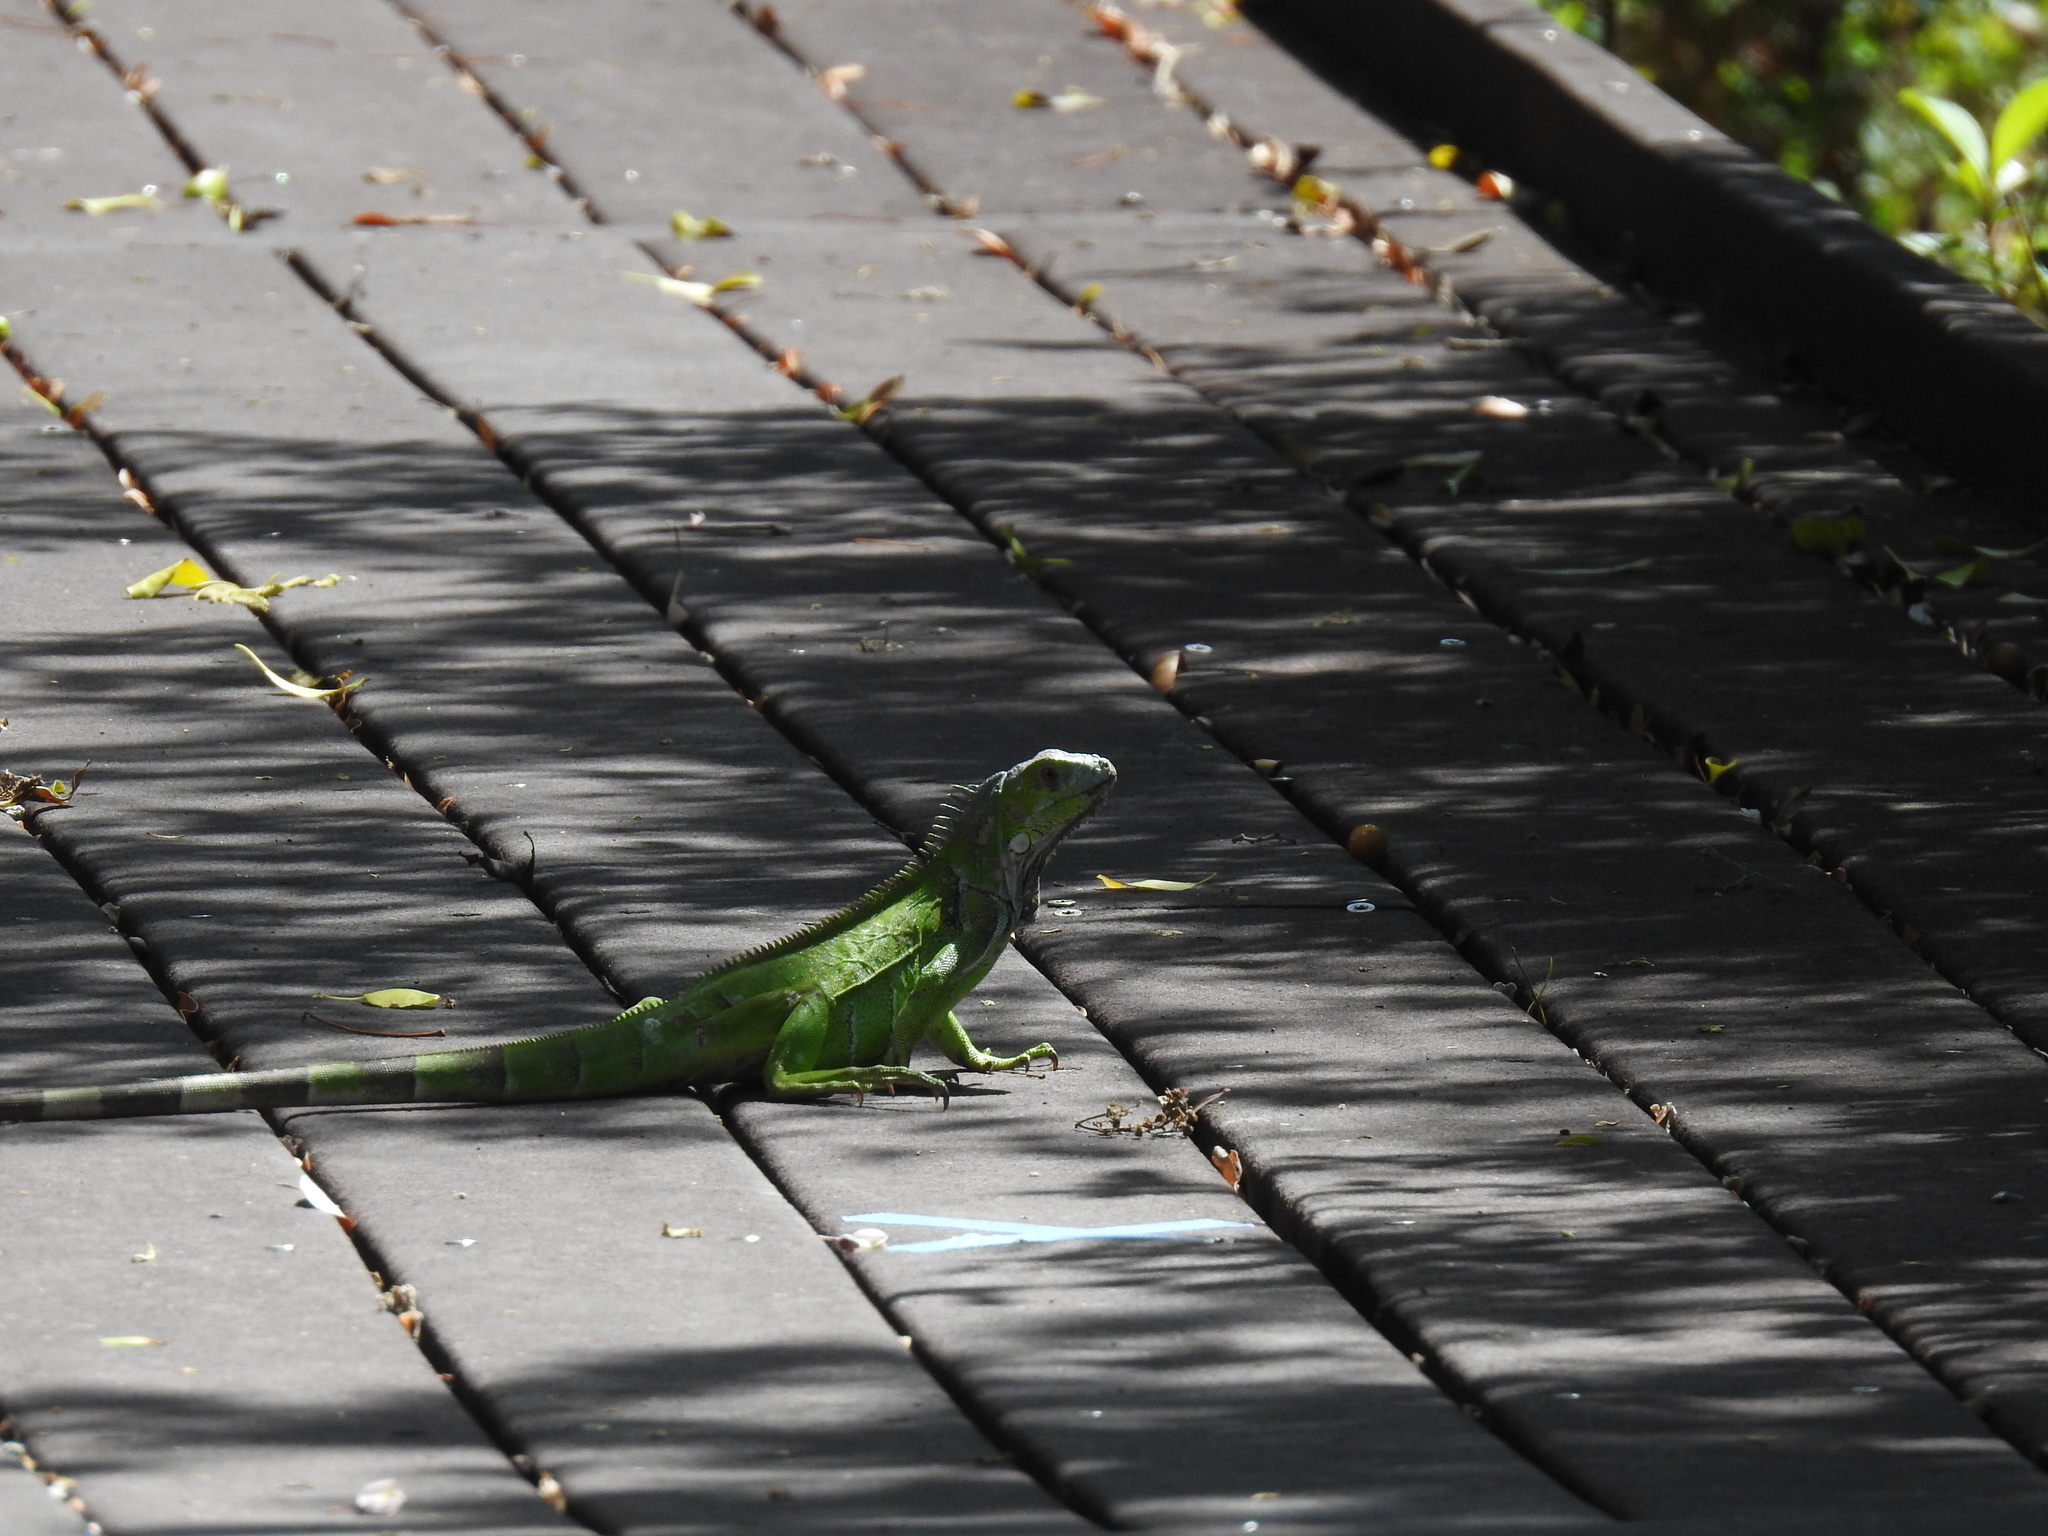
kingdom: Animalia
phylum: Chordata
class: Squamata
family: Iguanidae
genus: Iguana
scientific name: Iguana iguana
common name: Green iguana
